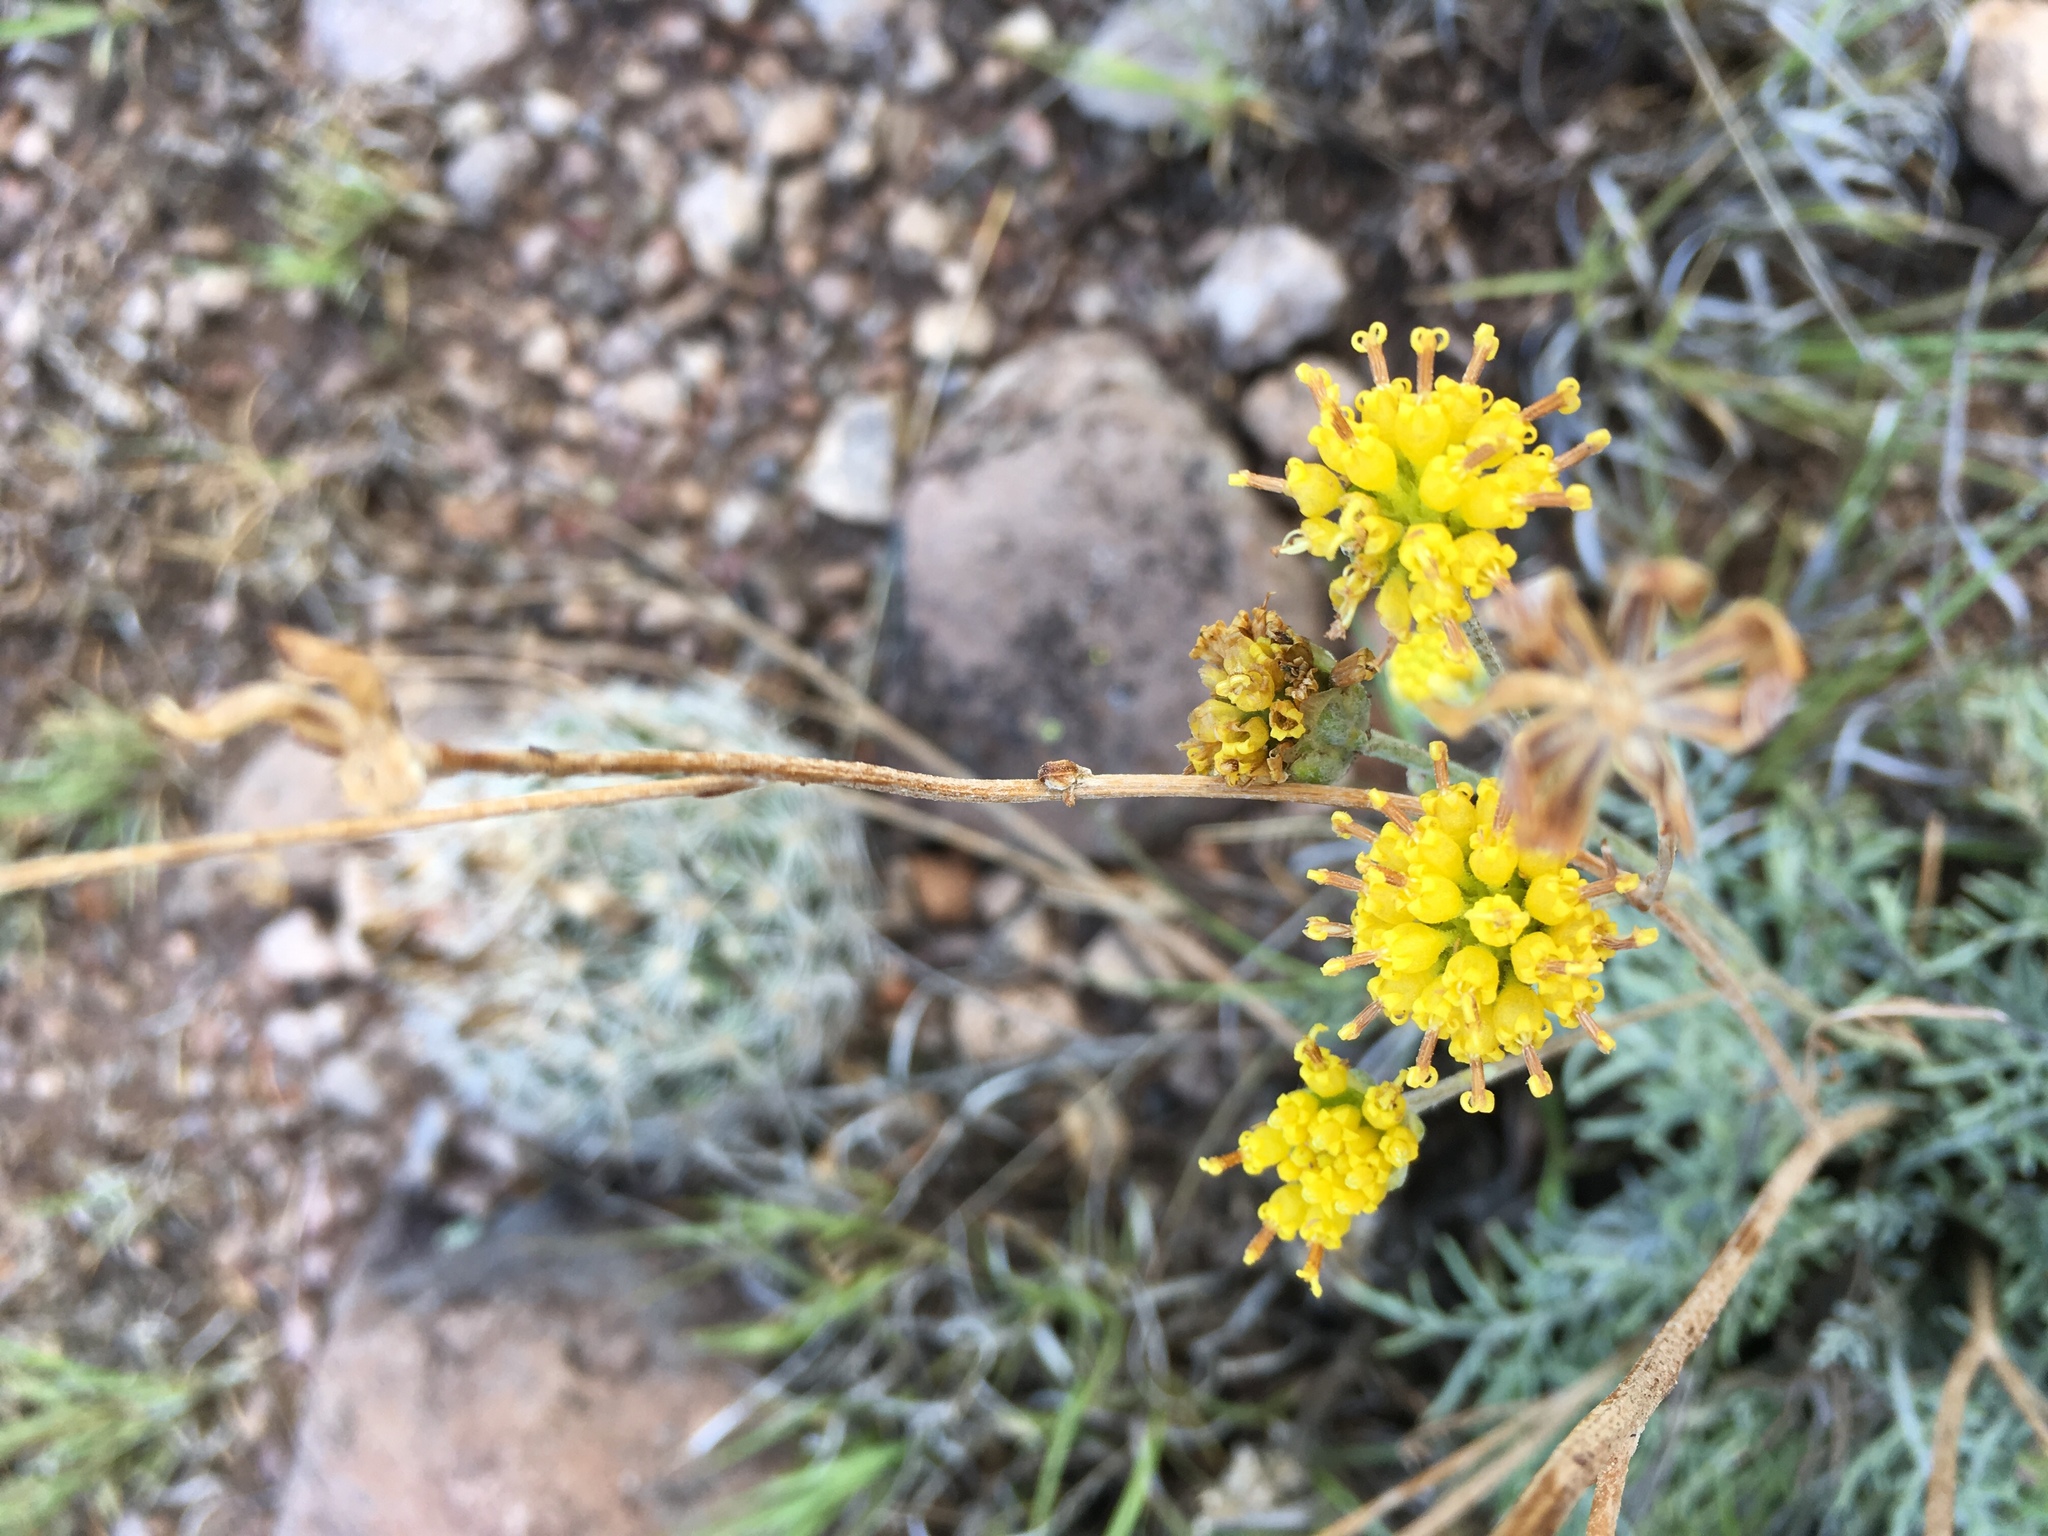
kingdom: Plantae
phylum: Tracheophyta
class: Magnoliopsida
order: Asterales
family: Asteraceae
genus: Hymenopappus
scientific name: Hymenopappus filifolius
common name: Columbia cutleaf
